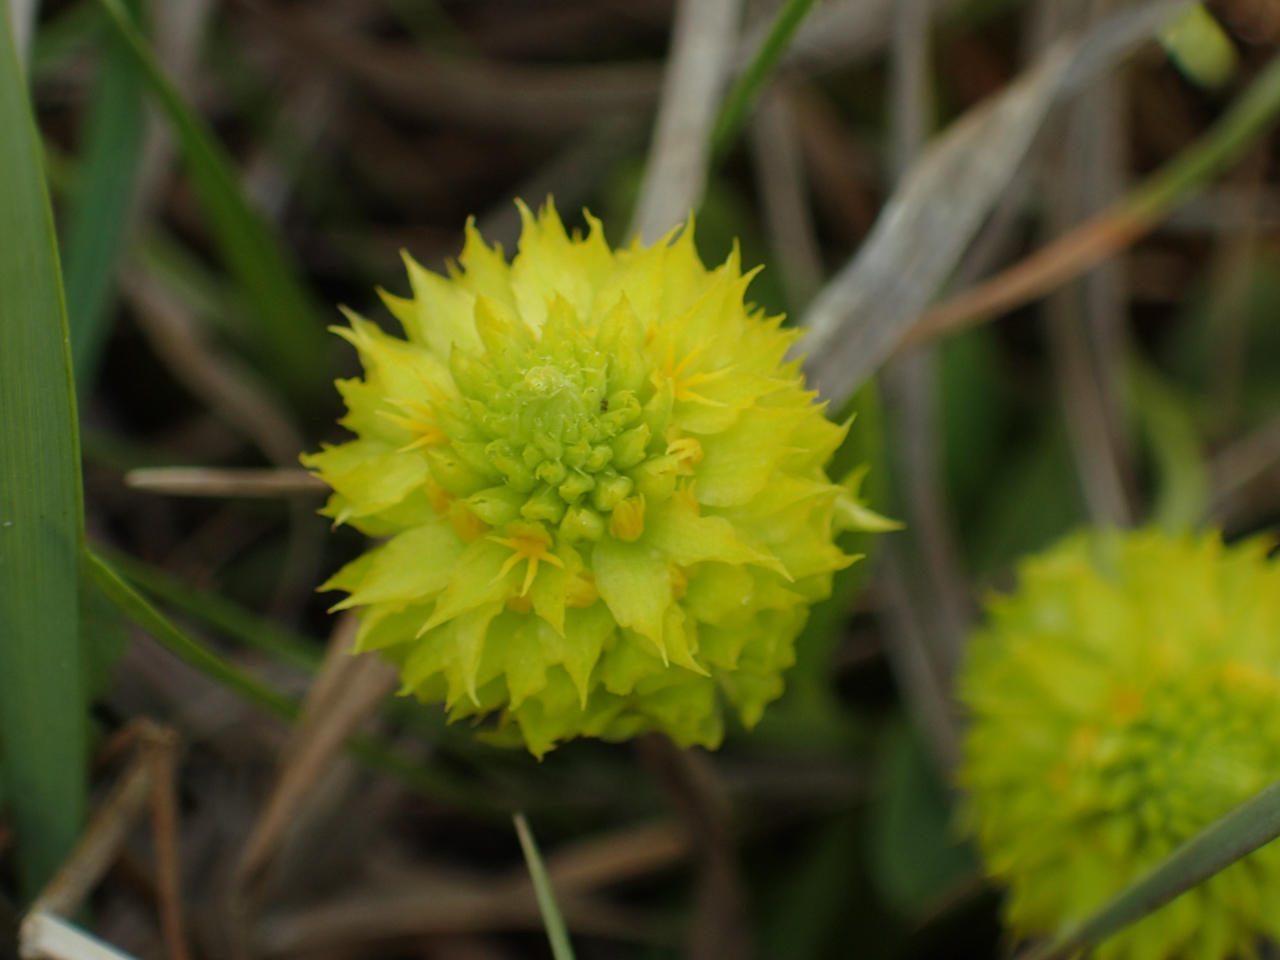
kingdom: Plantae
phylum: Tracheophyta
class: Magnoliopsida
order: Fabales
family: Polygalaceae
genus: Polygala
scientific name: Polygala nana
